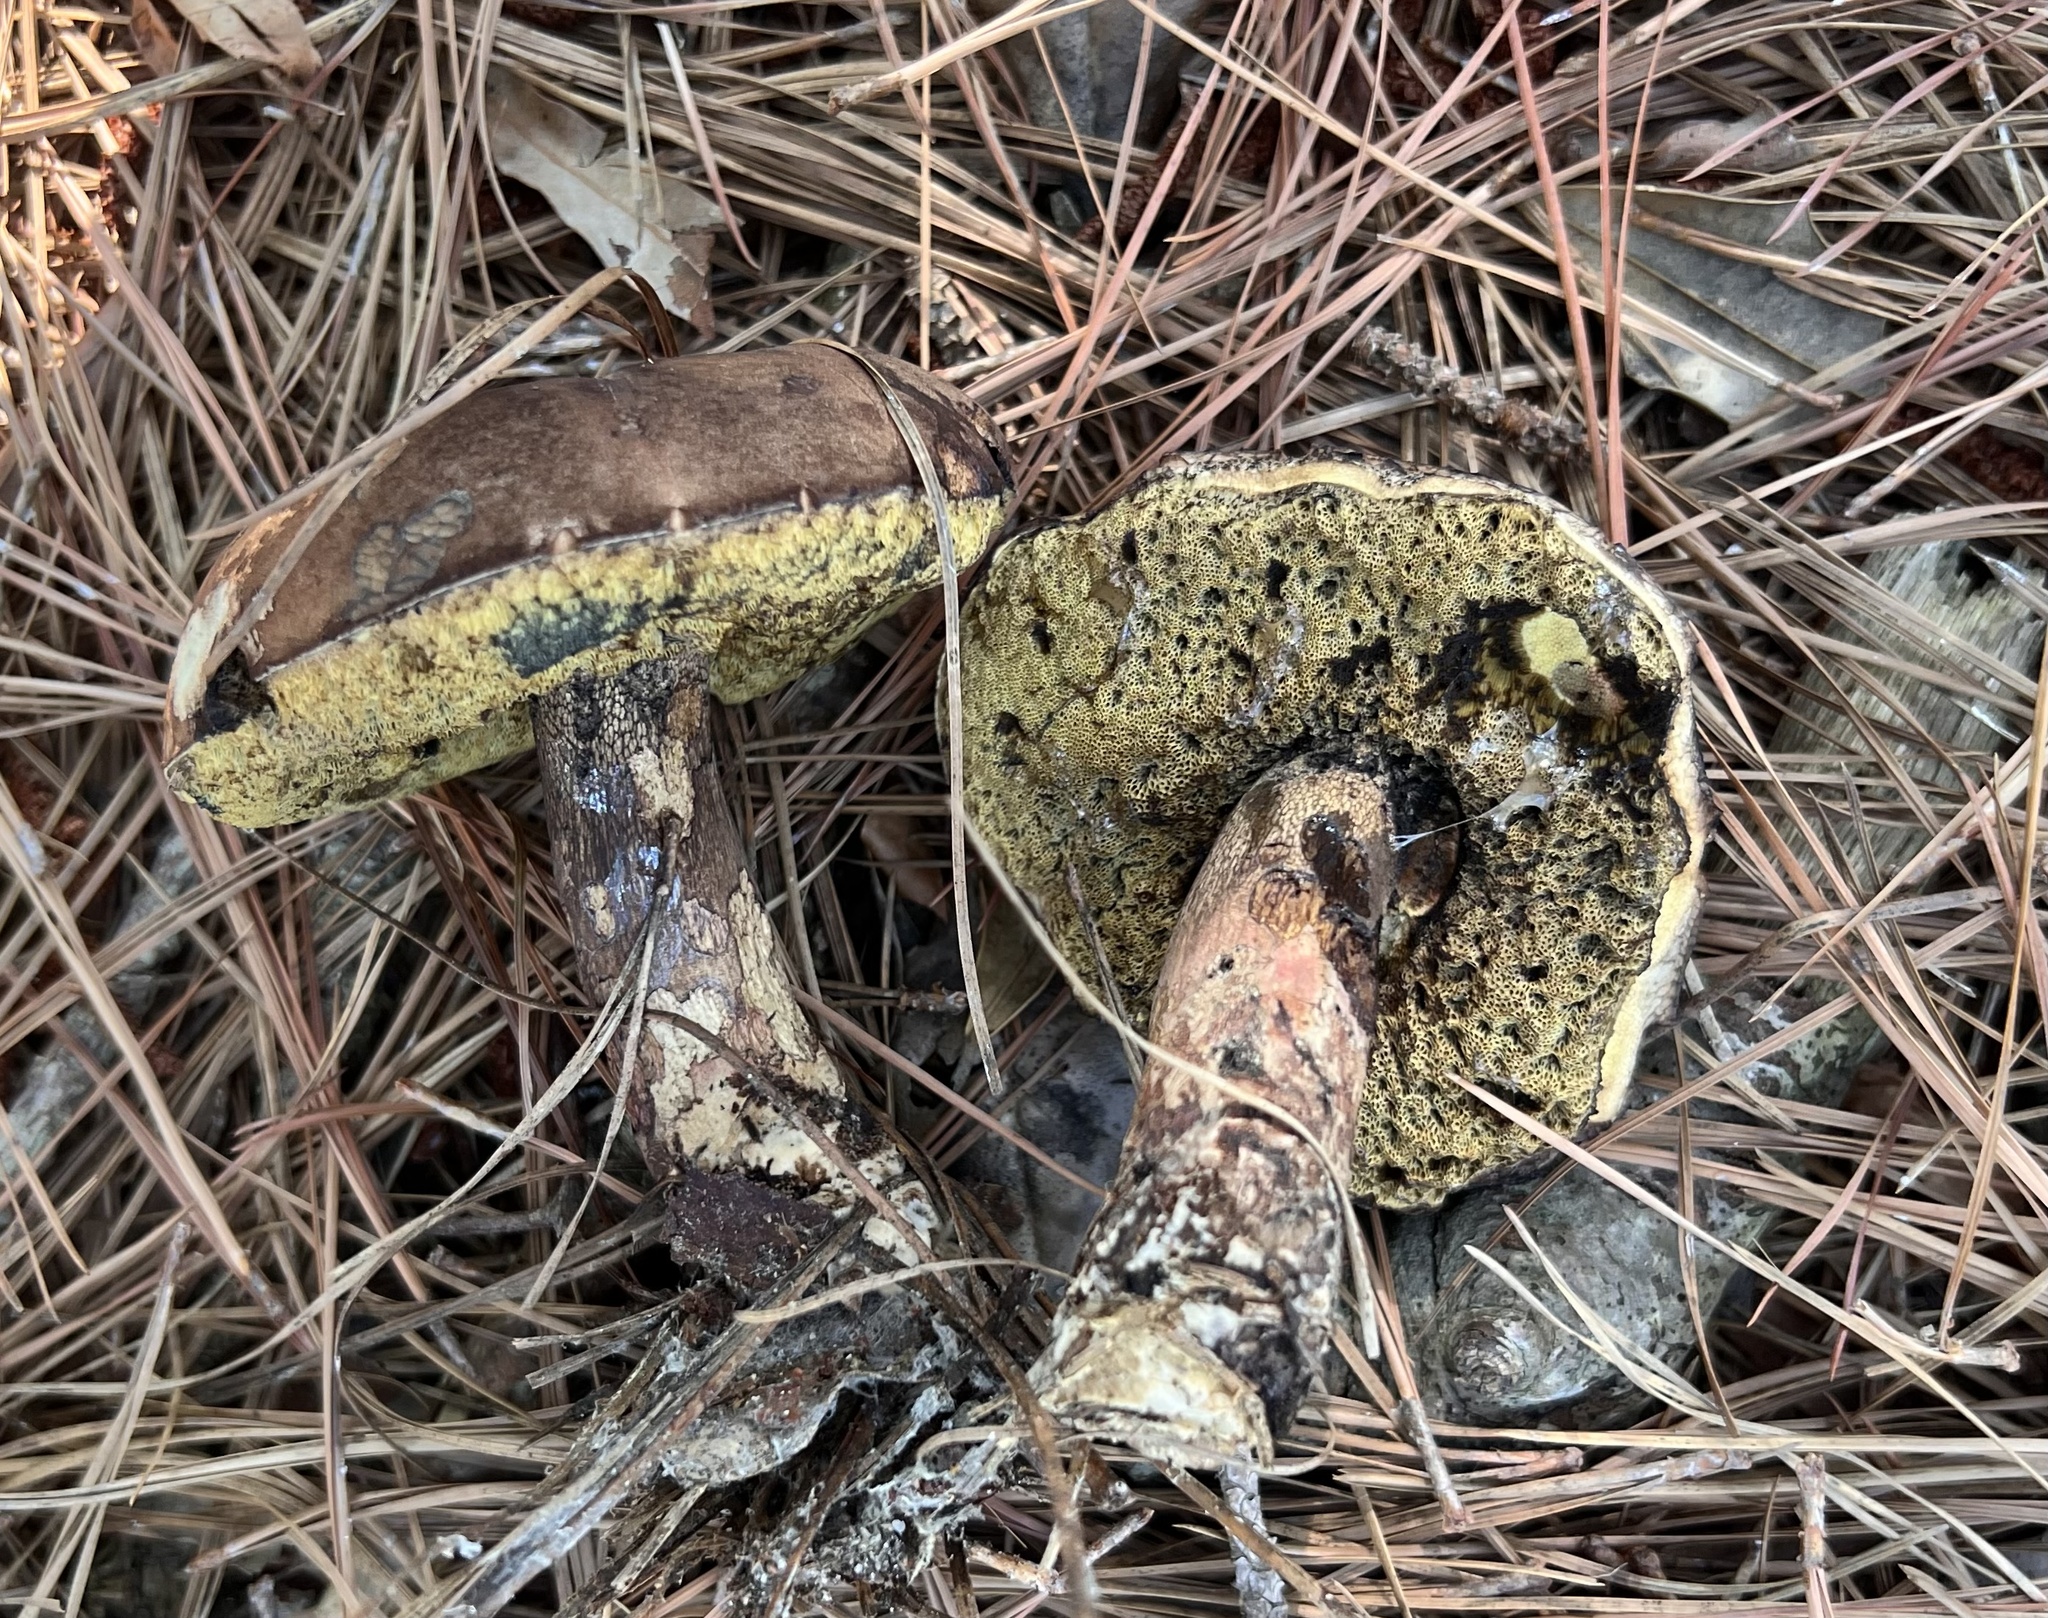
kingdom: Fungi
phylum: Basidiomycota
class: Agaricomycetes
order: Boletales
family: Boletaceae
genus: Boletus
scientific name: Boletus
